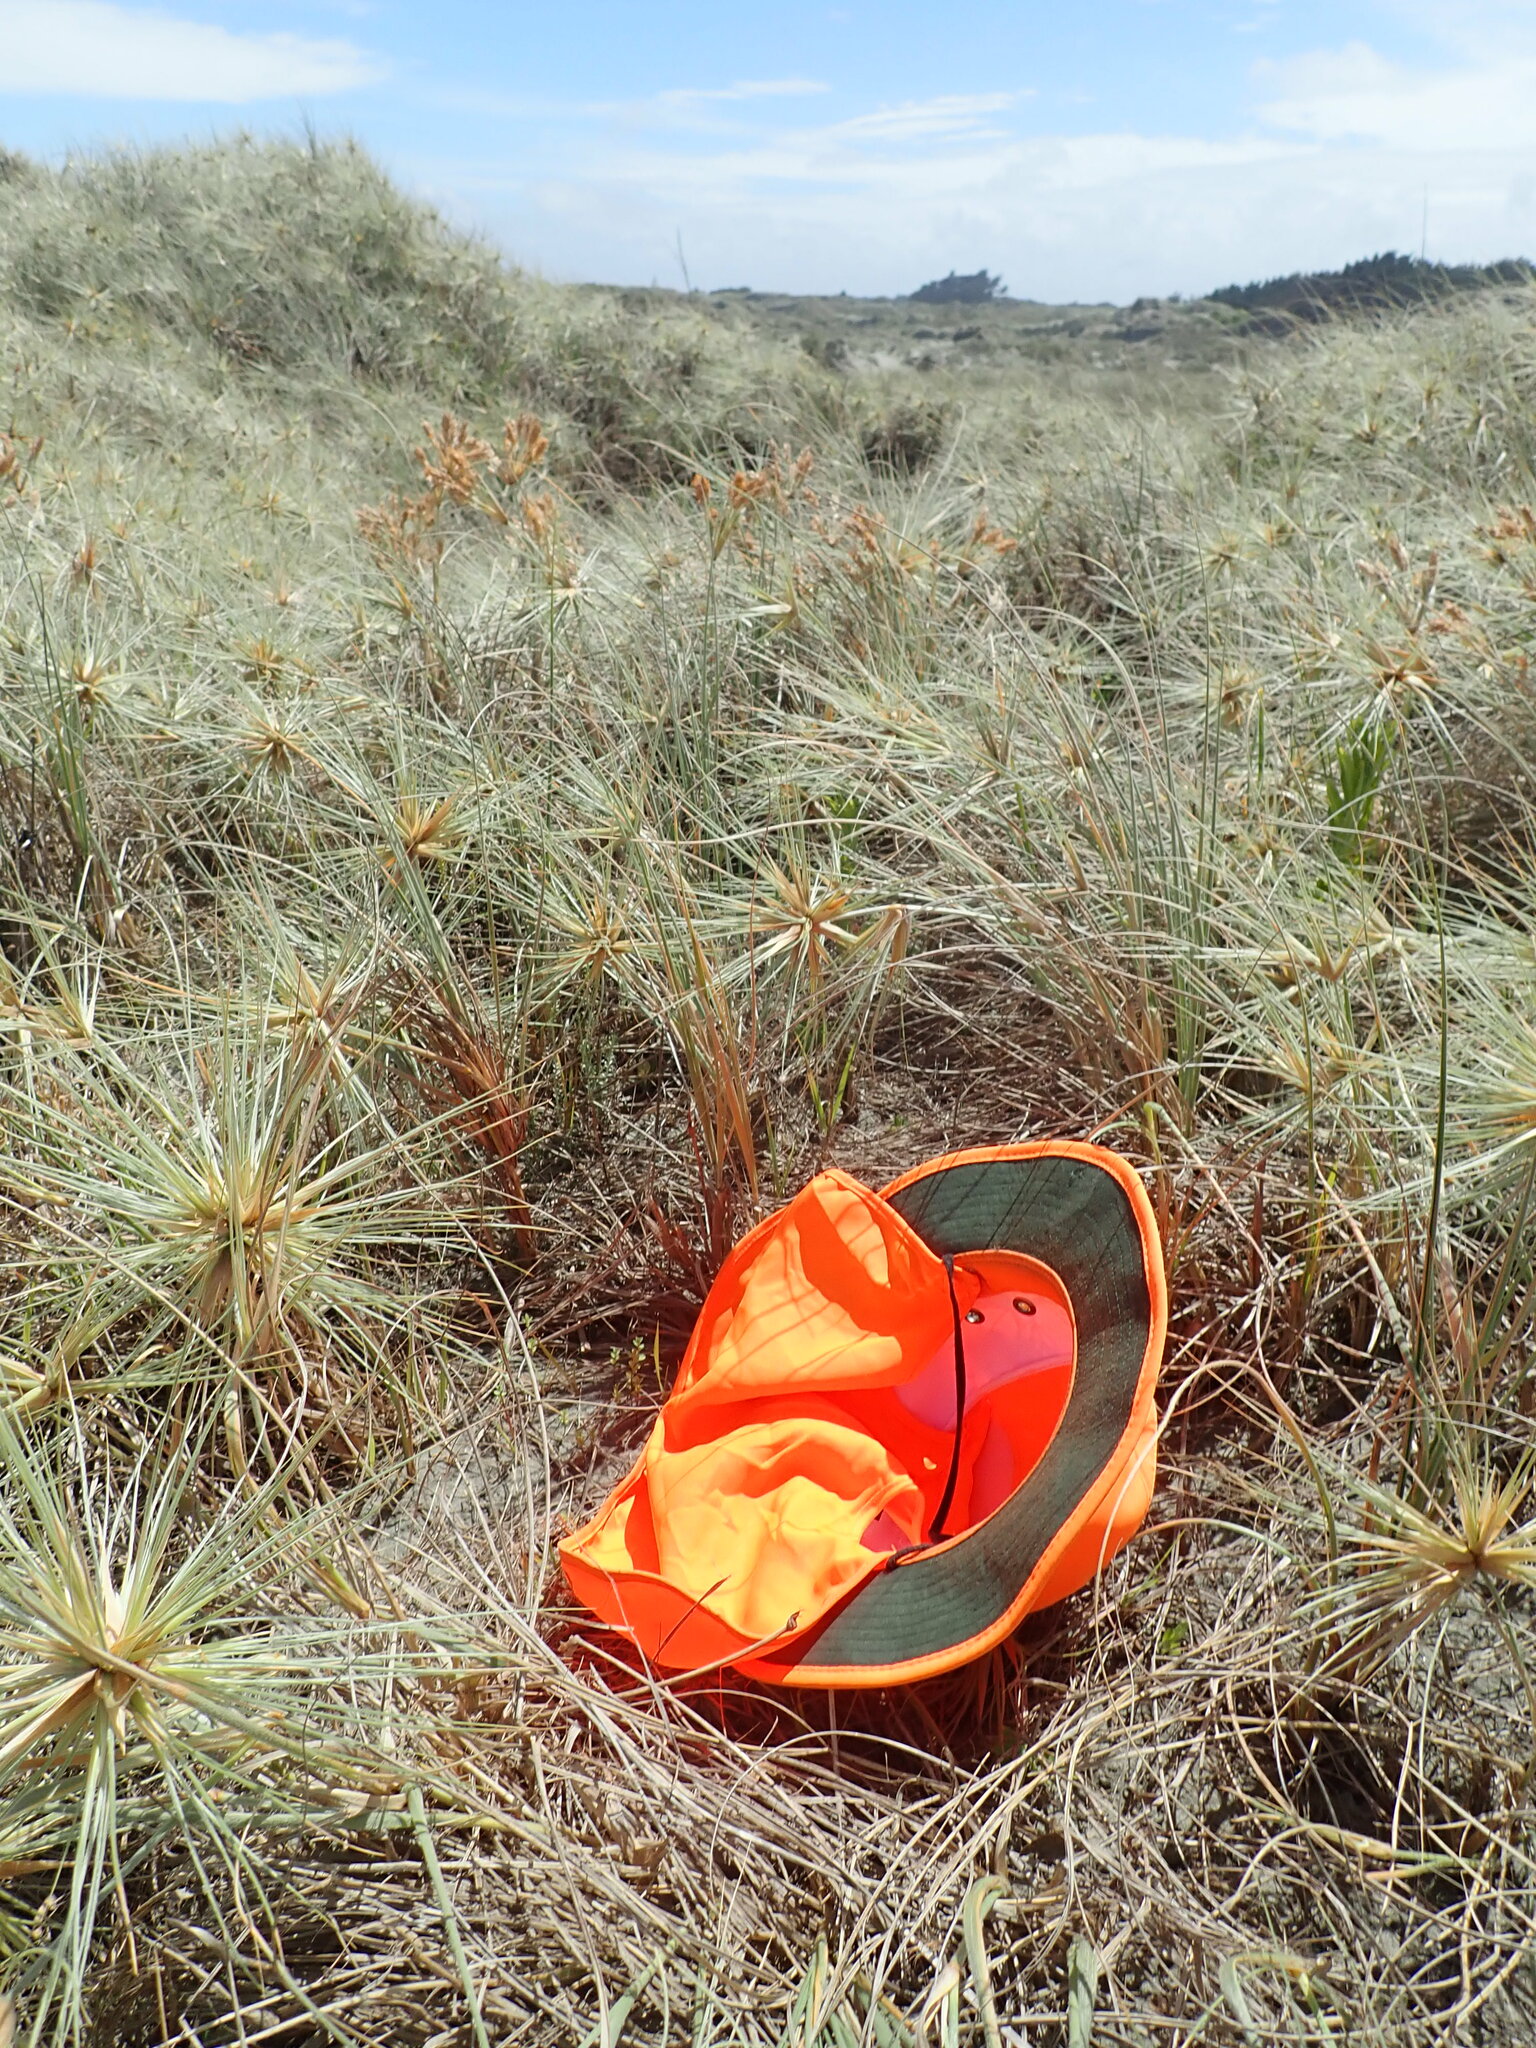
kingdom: Plantae
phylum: Tracheophyta
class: Magnoliopsida
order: Malvales
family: Thymelaeaceae
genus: Pimelea
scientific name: Pimelea villosa
